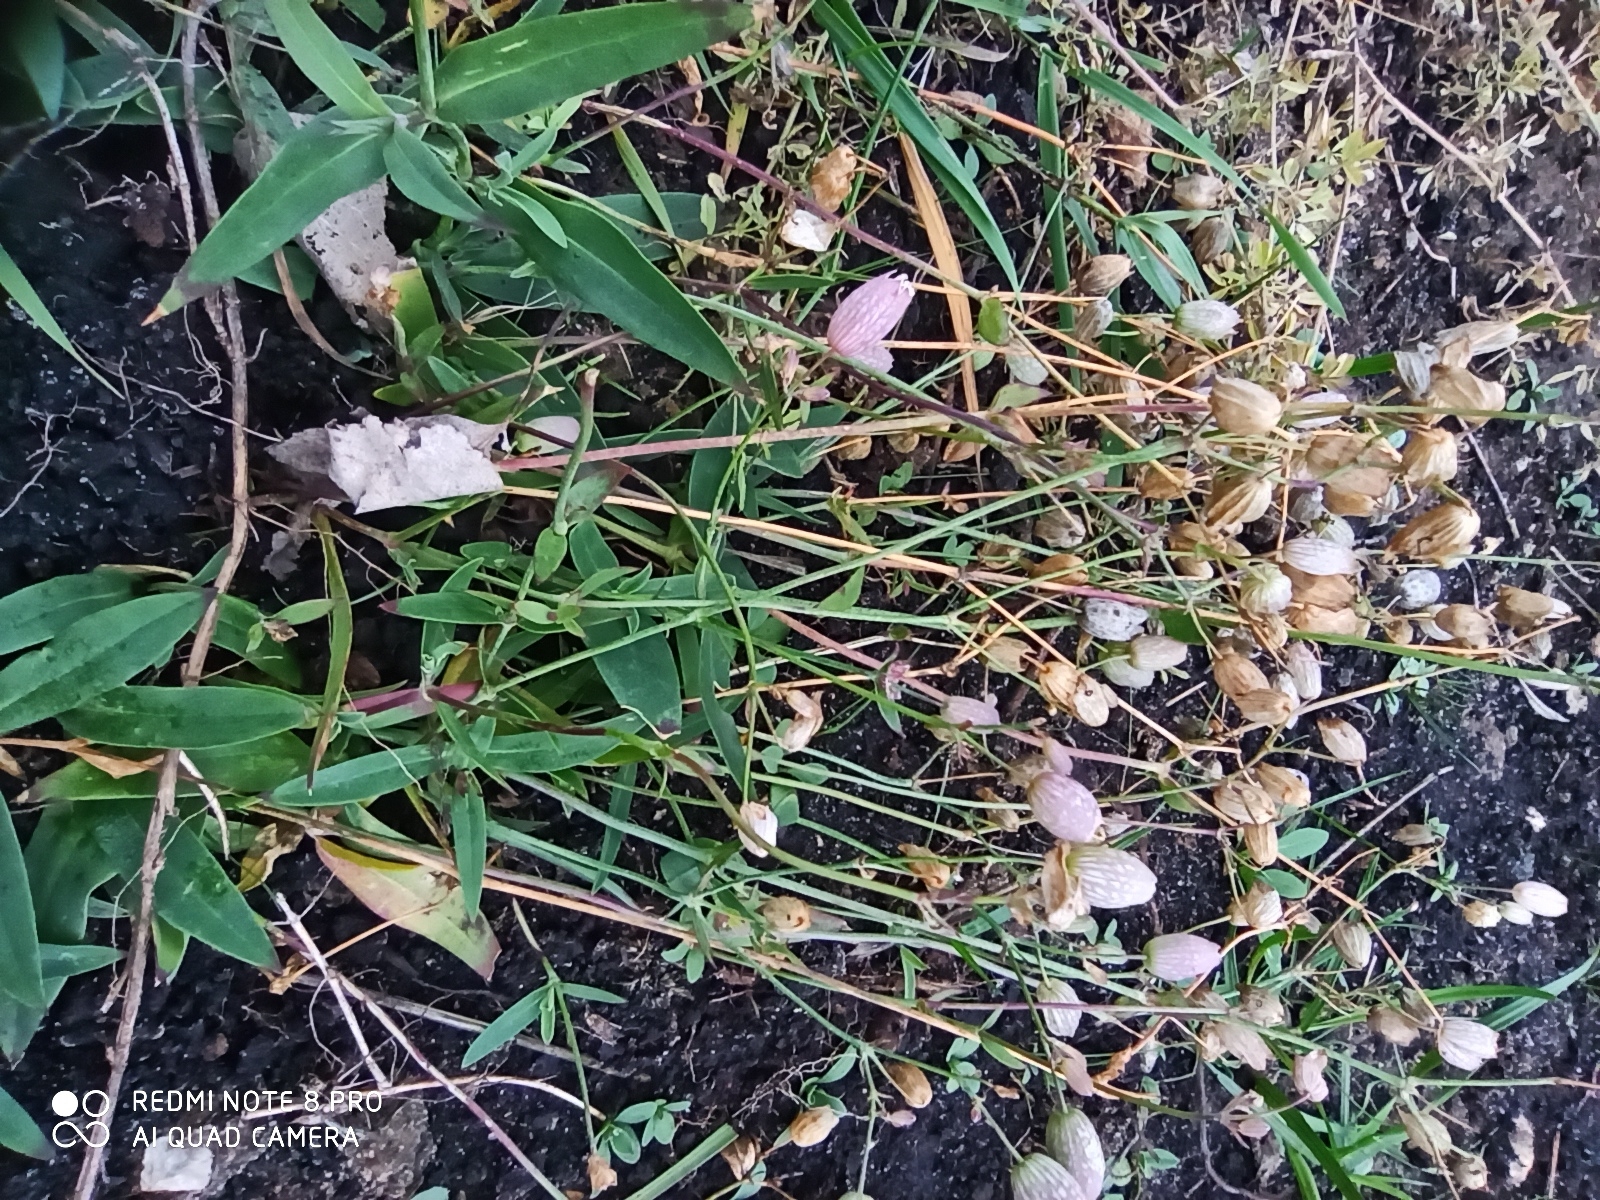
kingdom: Plantae
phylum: Tracheophyta
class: Magnoliopsida
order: Caryophyllales
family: Caryophyllaceae
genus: Silene
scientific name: Silene vulgaris
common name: Bladder campion
